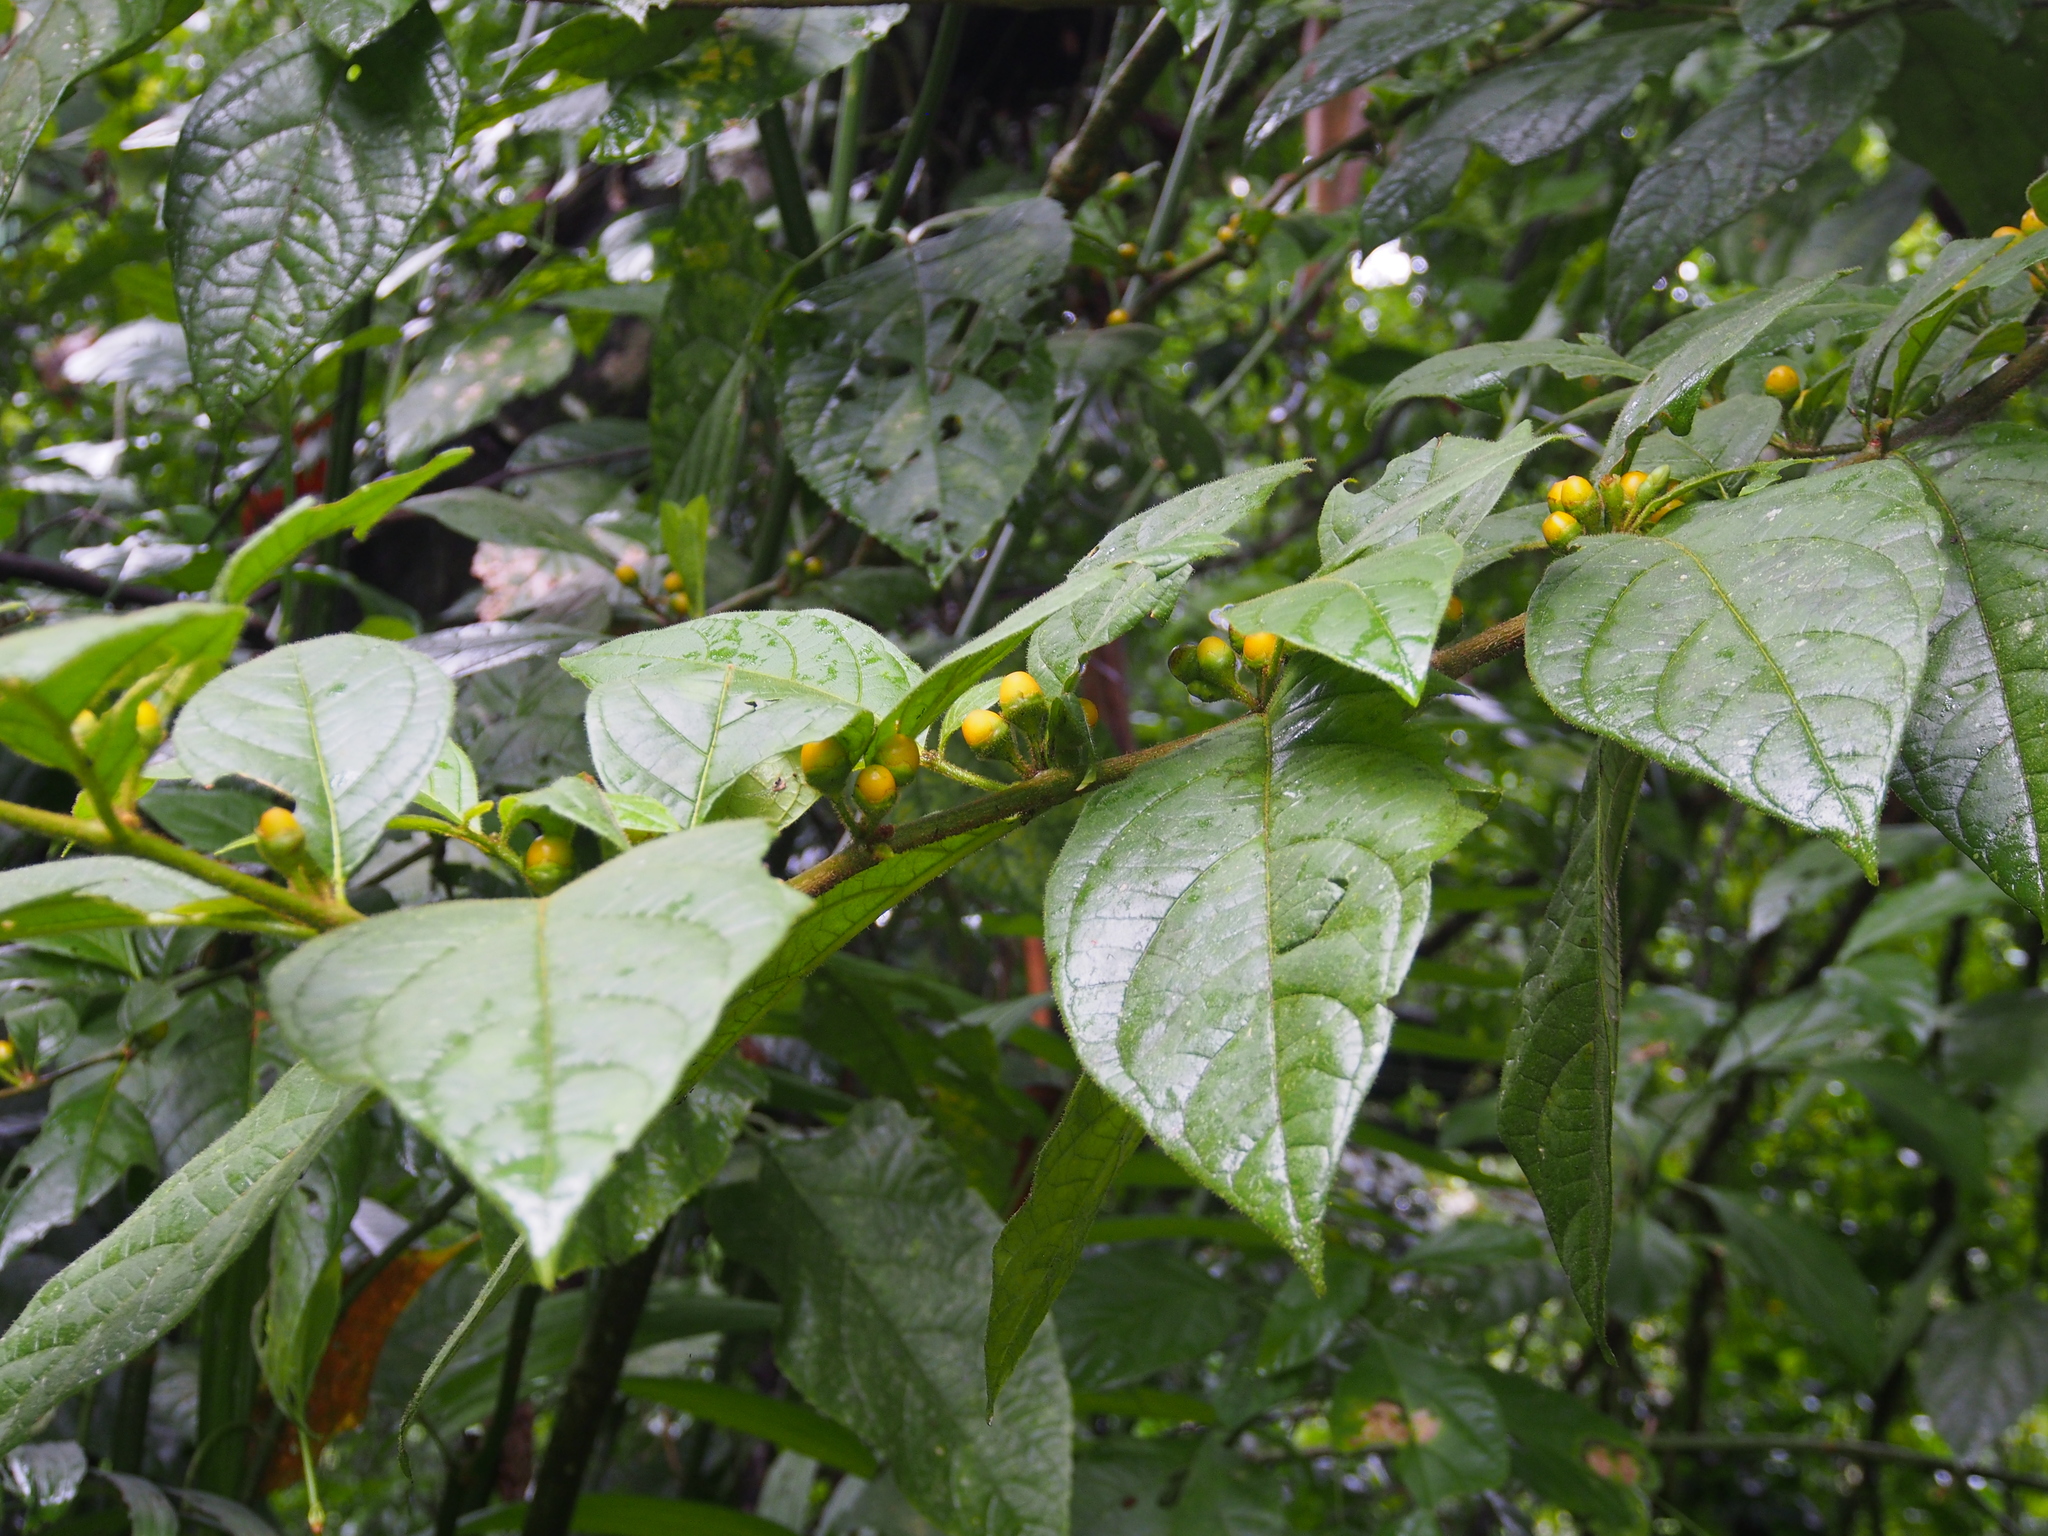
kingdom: Plantae
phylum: Tracheophyta
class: Magnoliopsida
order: Solanales
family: Solanaceae
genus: Lycianthes
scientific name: Lycianthes sanctaeclarae
